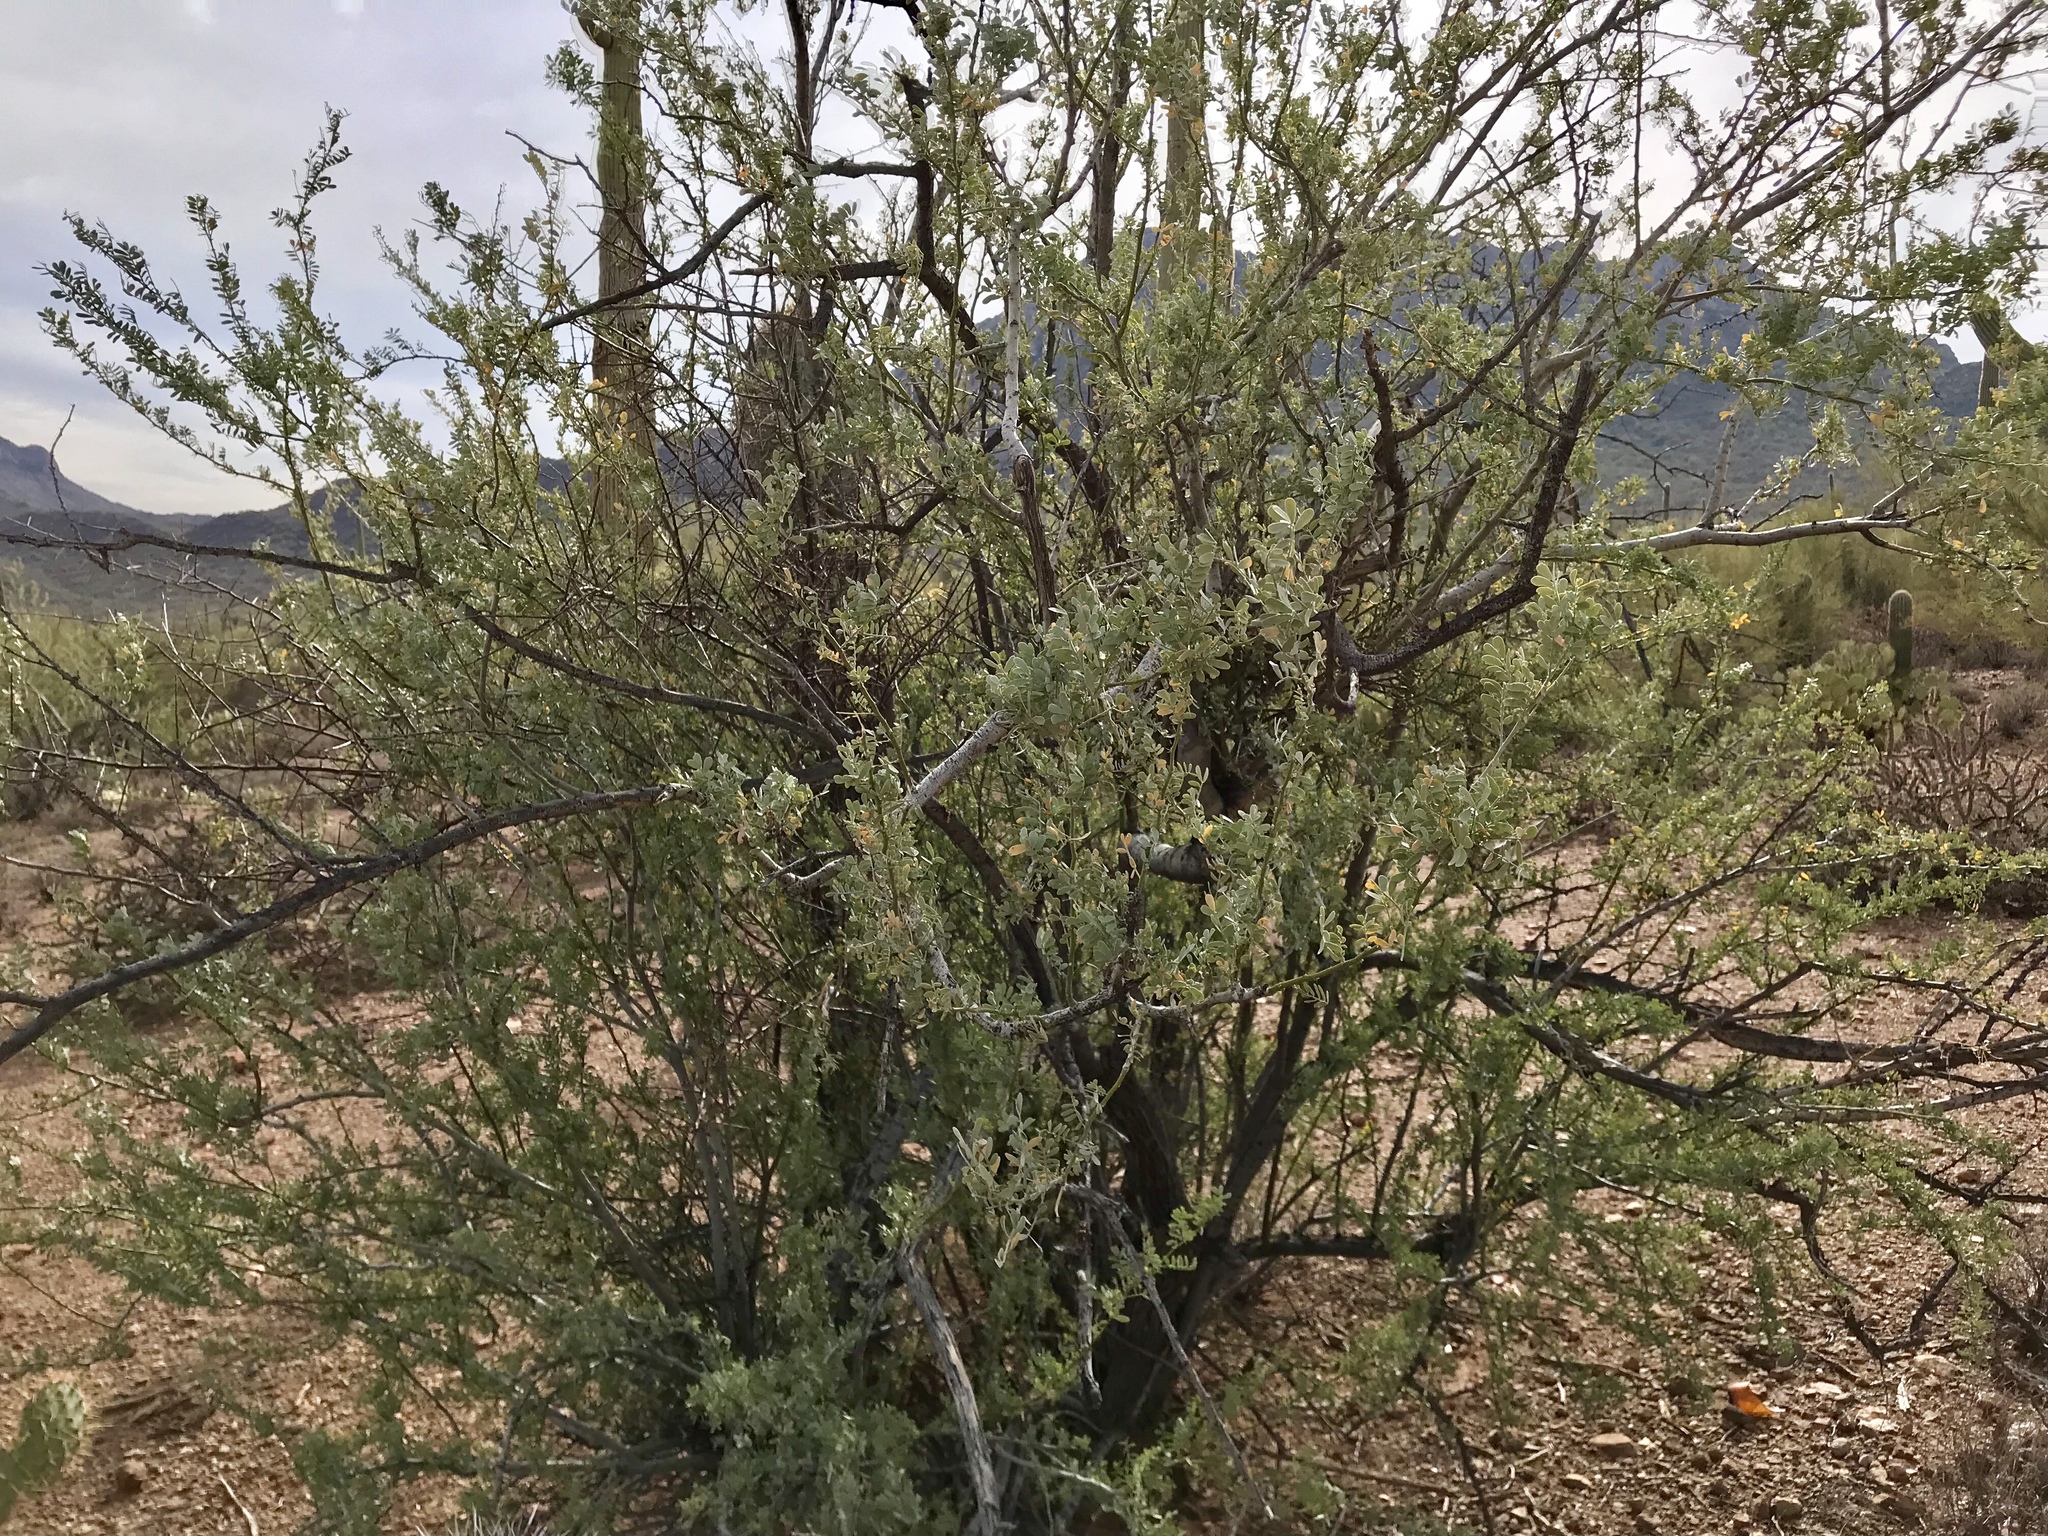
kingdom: Plantae
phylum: Tracheophyta
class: Magnoliopsida
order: Fabales
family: Fabaceae
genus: Olneya
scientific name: Olneya tesota
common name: Desert ironwood
